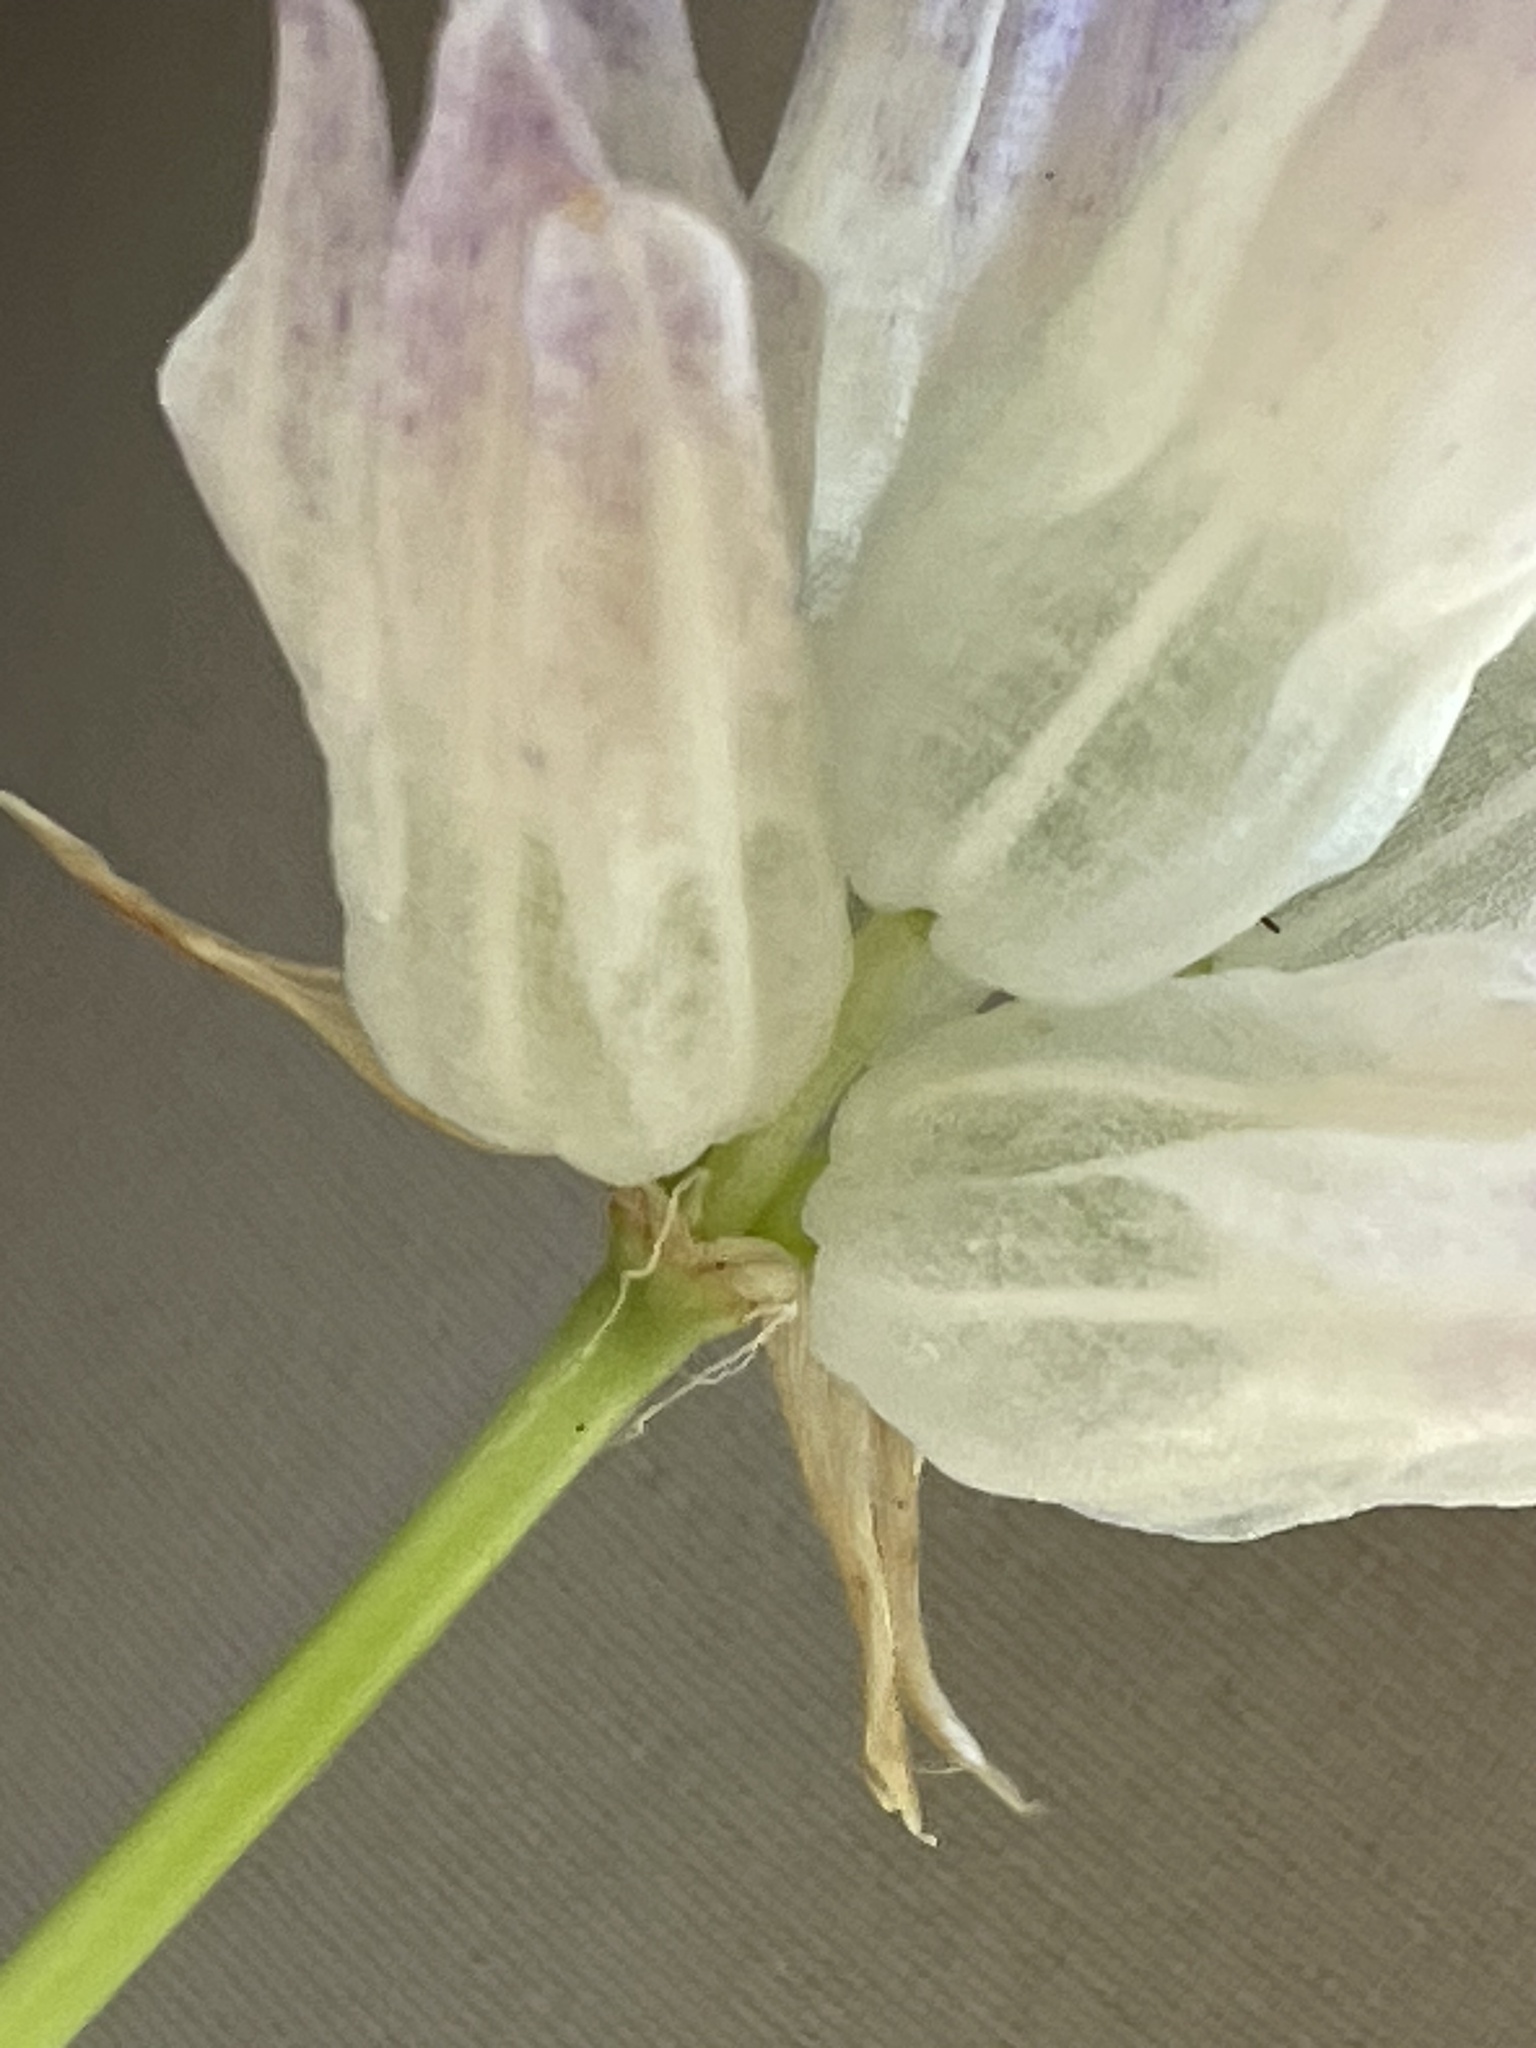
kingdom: Plantae
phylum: Tracheophyta
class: Liliopsida
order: Asparagales
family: Asparagaceae
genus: Dipterostemon
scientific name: Dipterostemon capitatus
